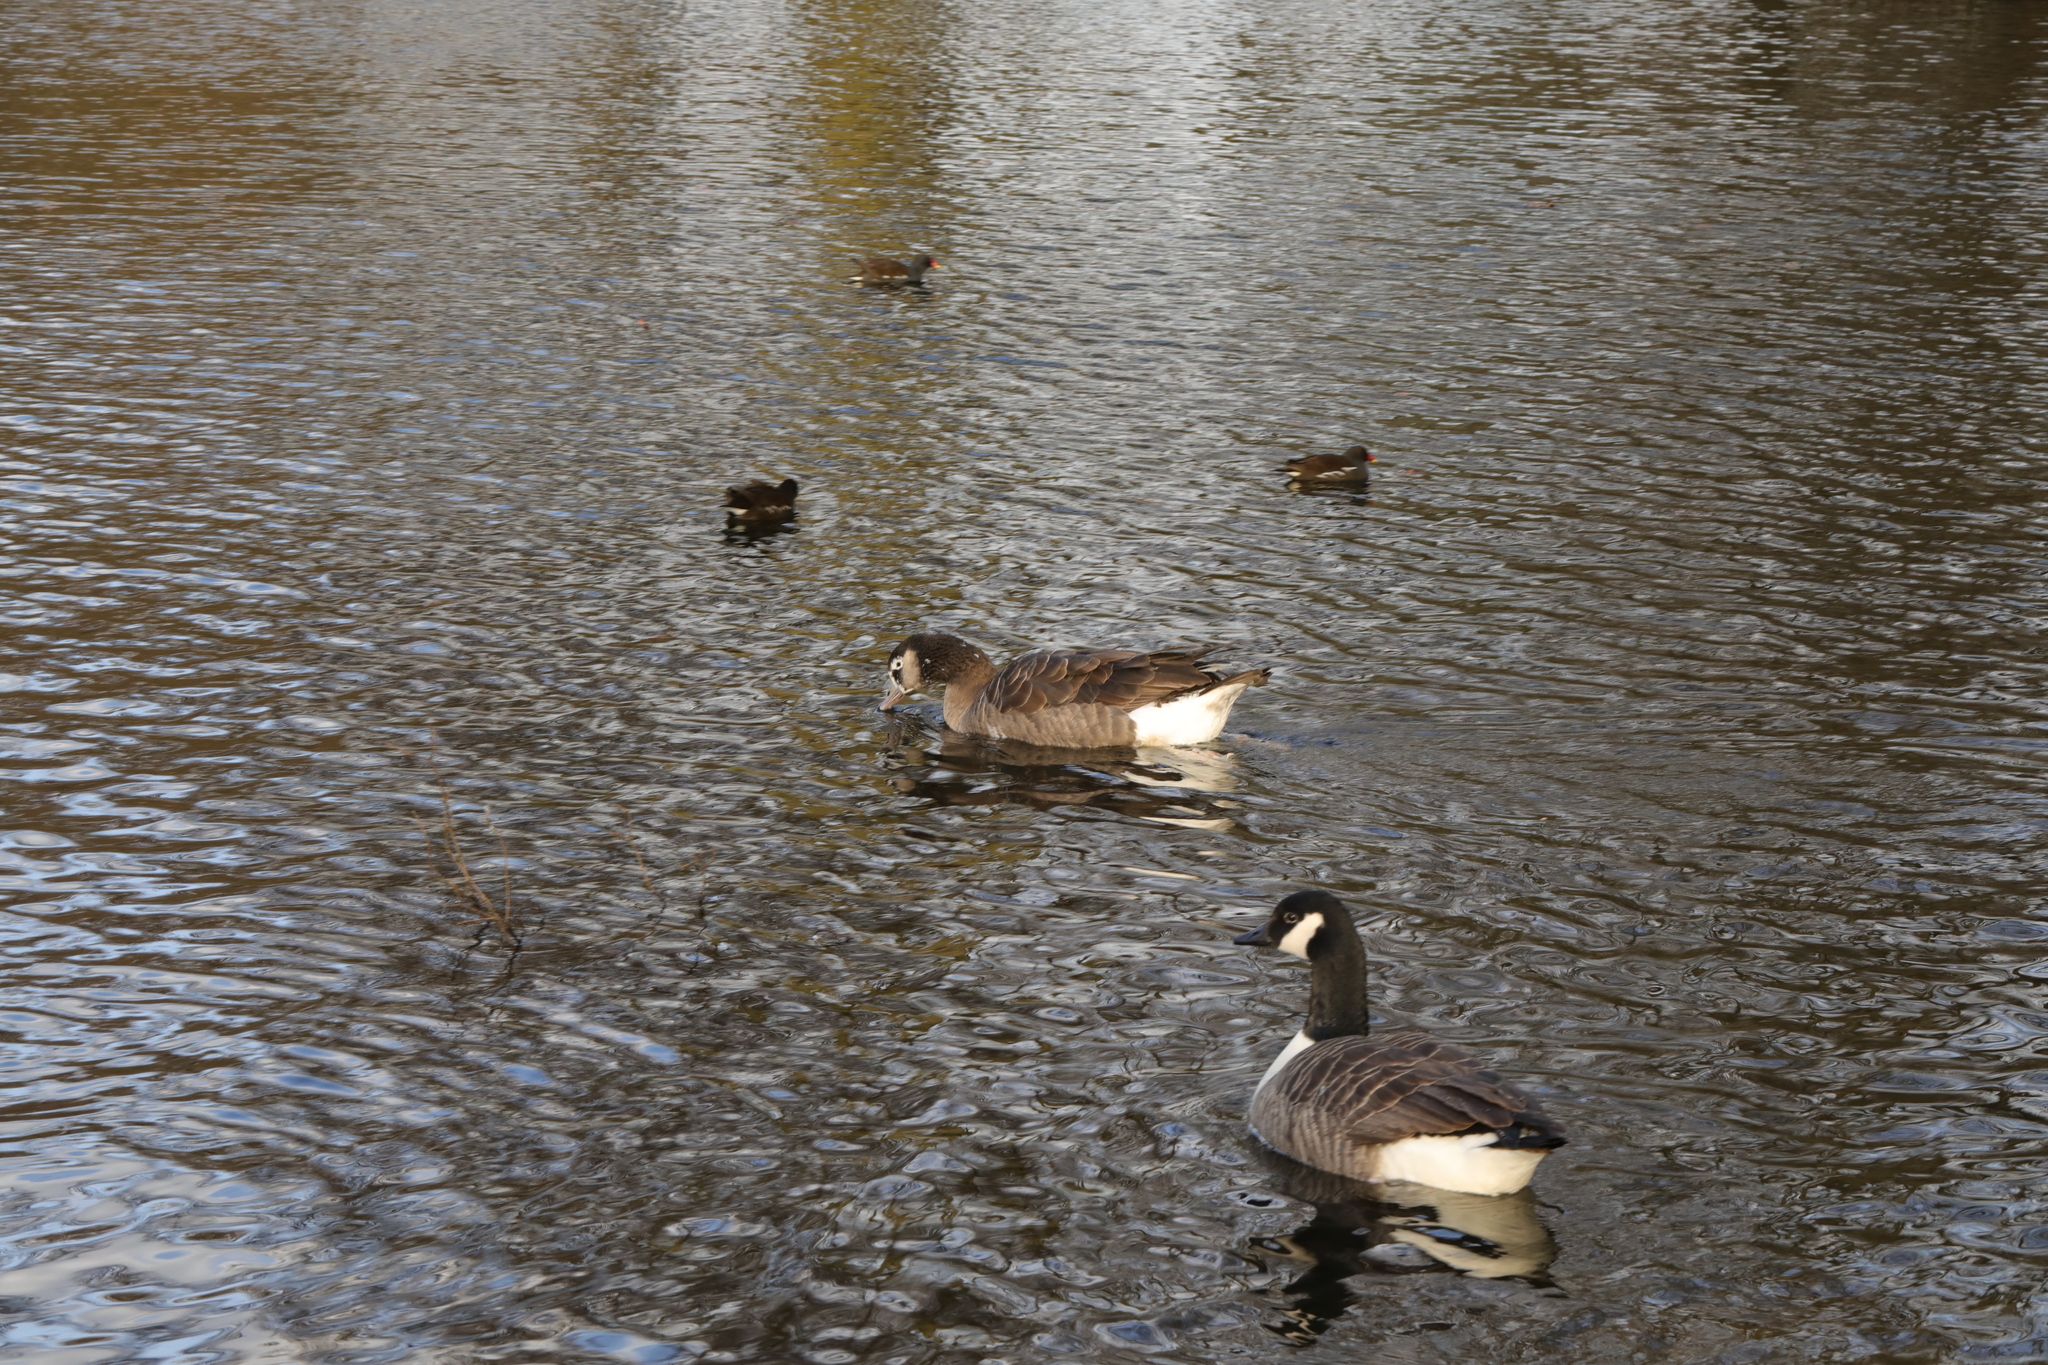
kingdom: Animalia
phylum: Chordata
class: Aves
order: Anseriformes
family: Anatidae
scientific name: Anatidae
